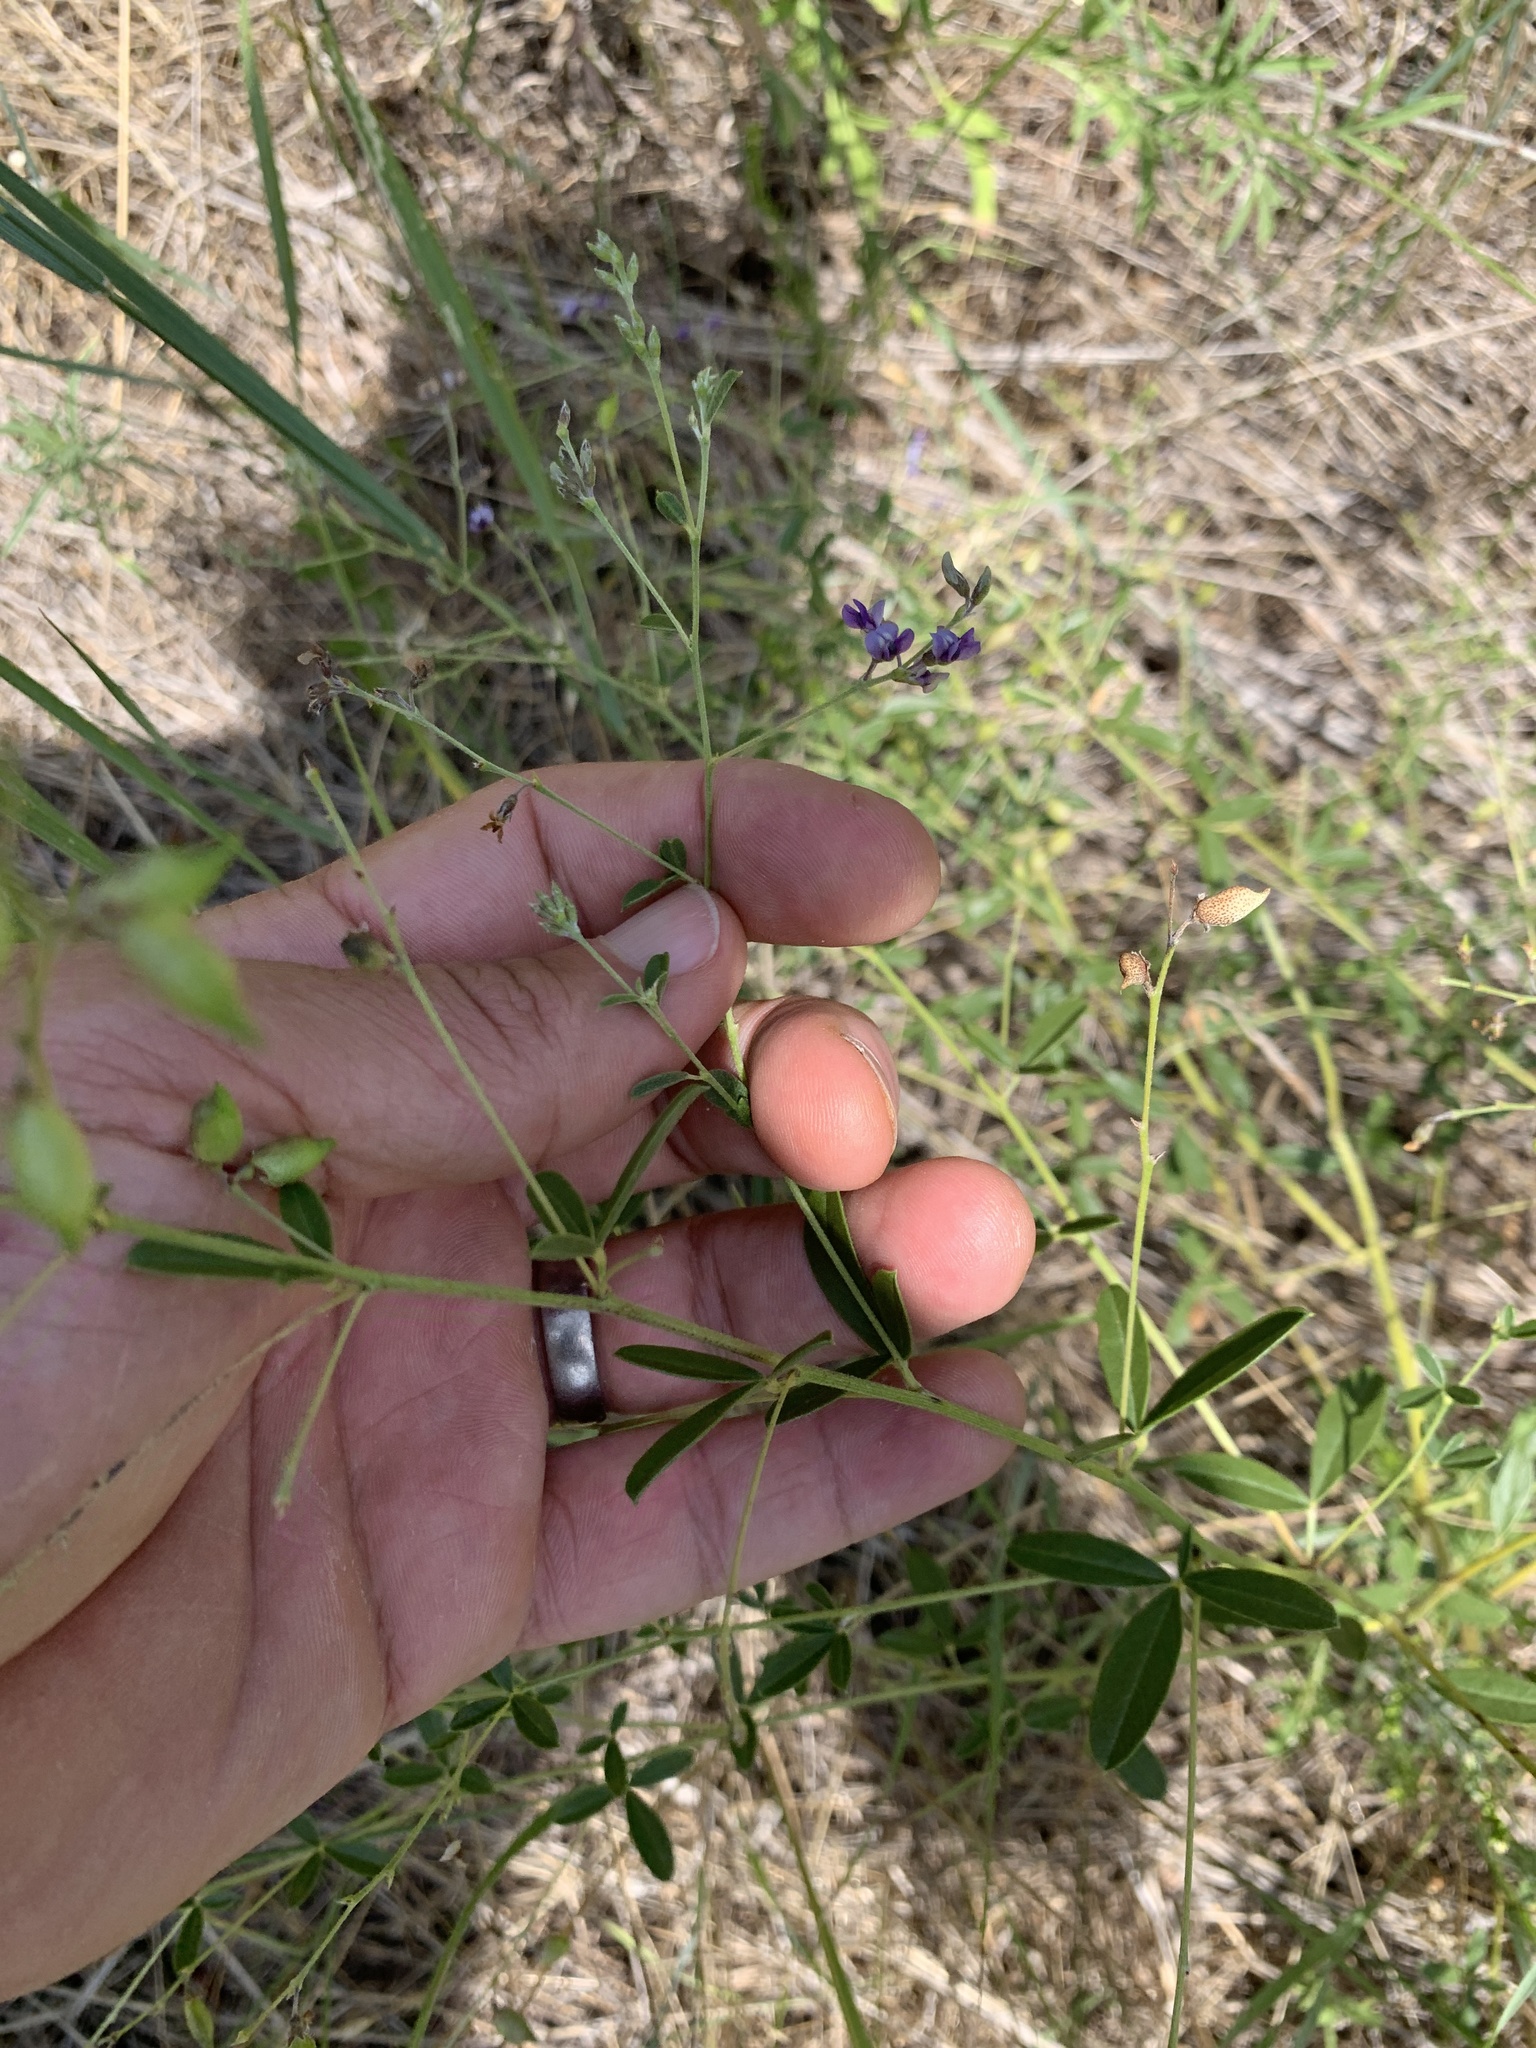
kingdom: Plantae
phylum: Tracheophyta
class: Magnoliopsida
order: Fabales
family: Fabaceae
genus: Pediomelum
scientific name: Pediomelum tenuiflorum
